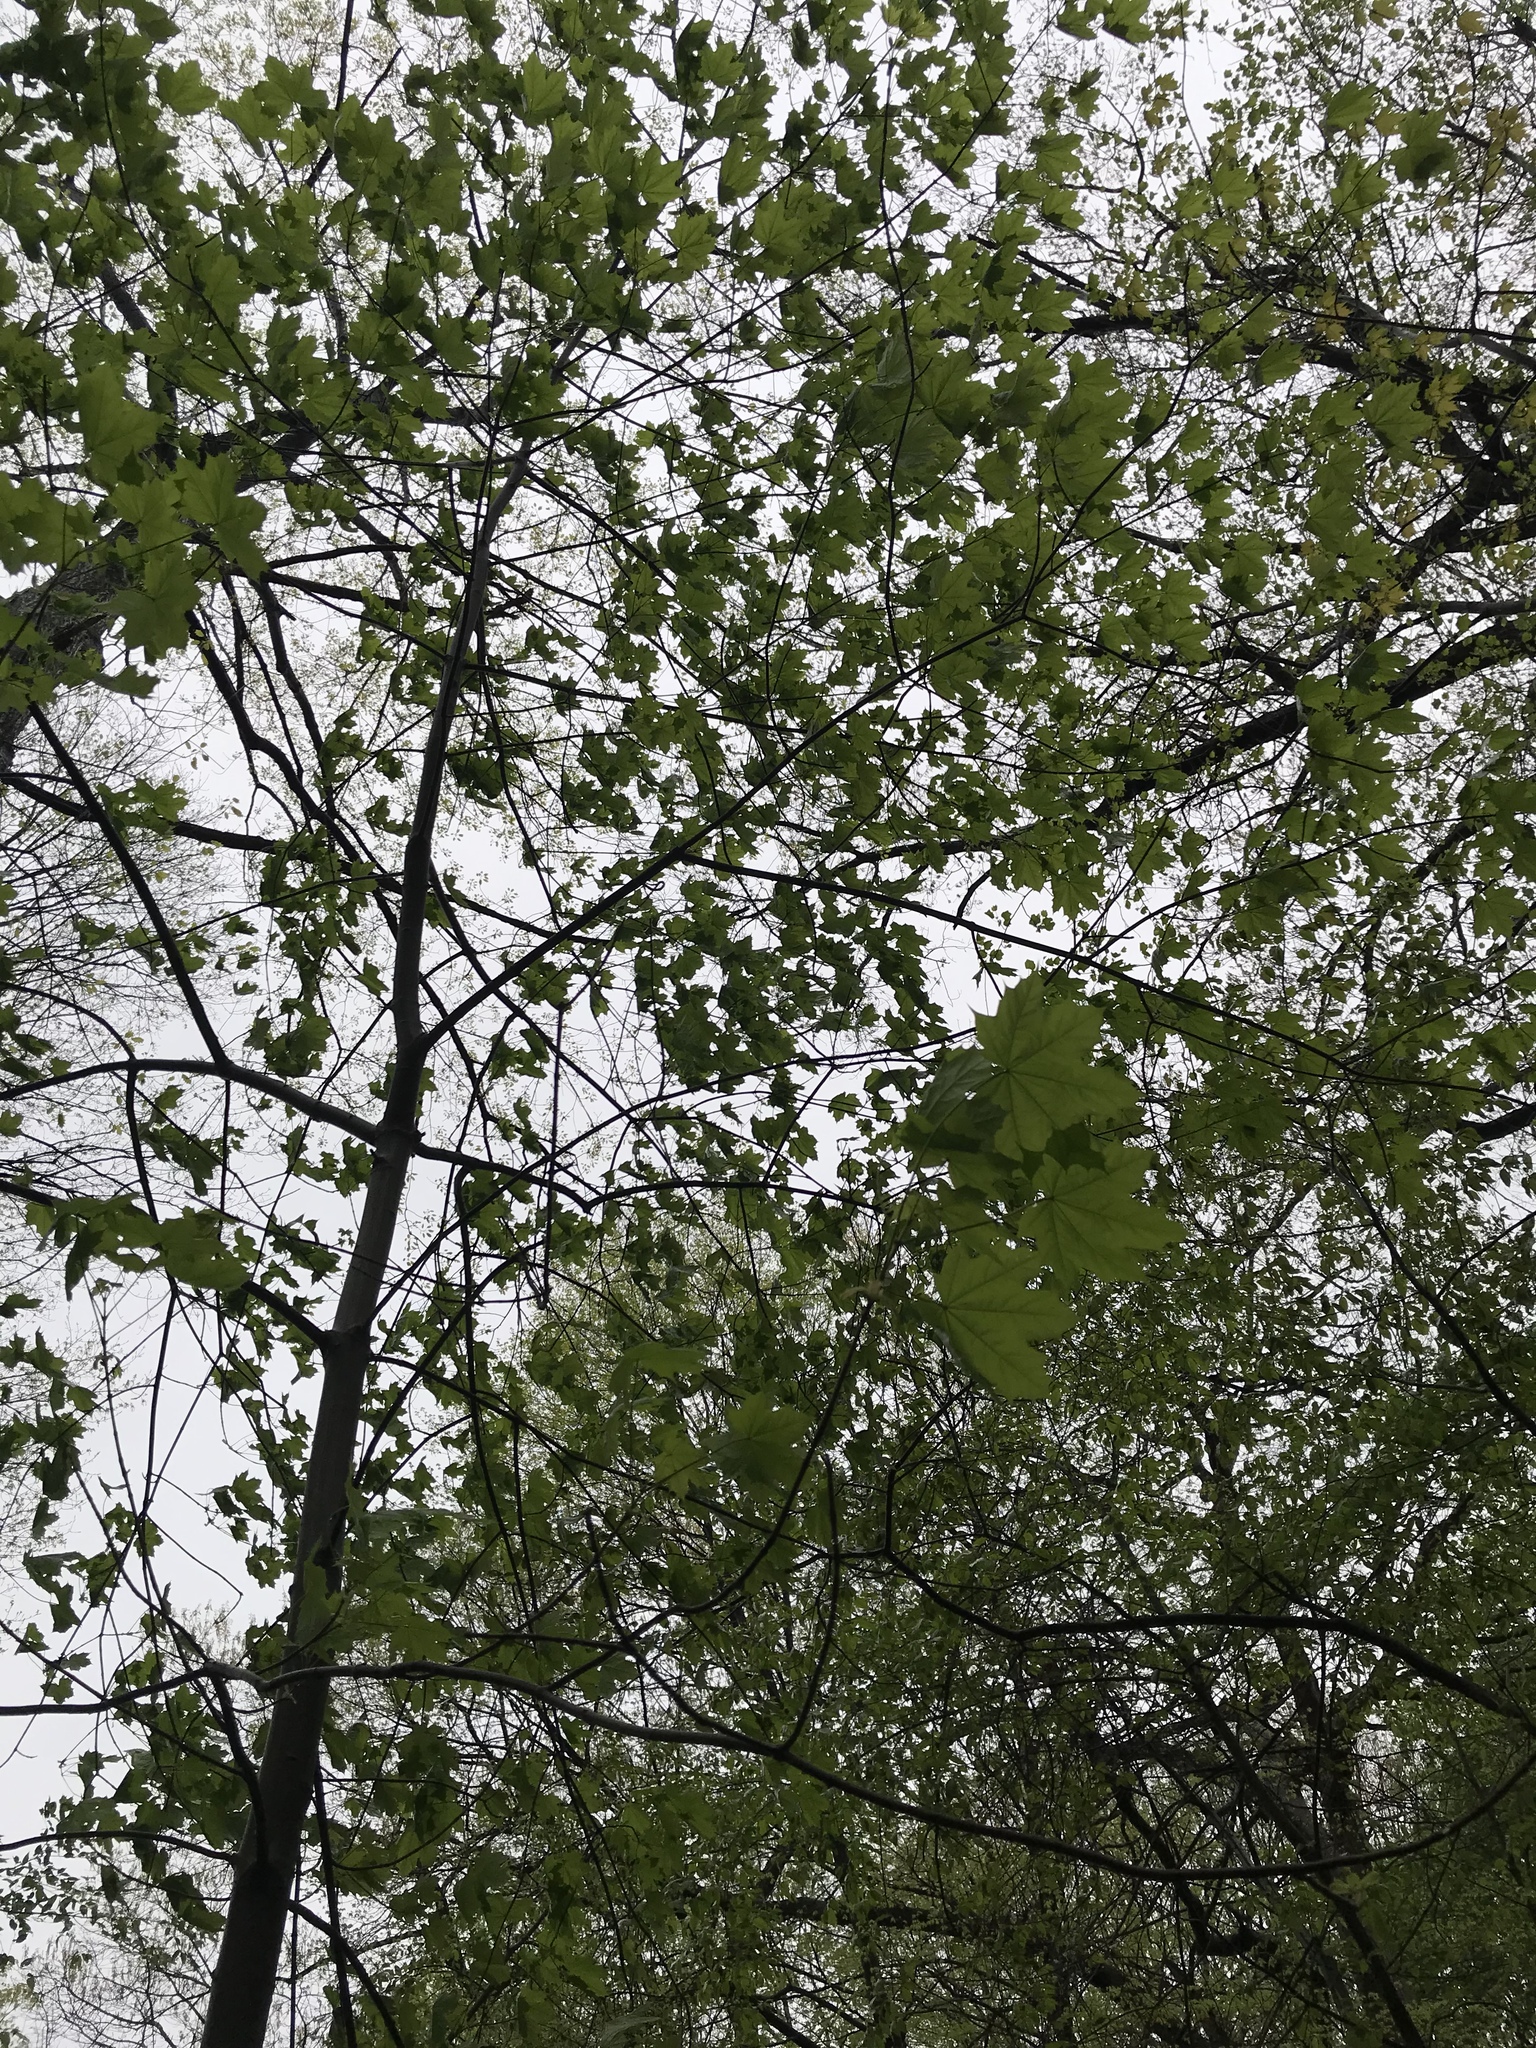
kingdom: Plantae
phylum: Tracheophyta
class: Magnoliopsida
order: Sapindales
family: Sapindaceae
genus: Acer
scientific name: Acer platanoides
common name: Norway maple
